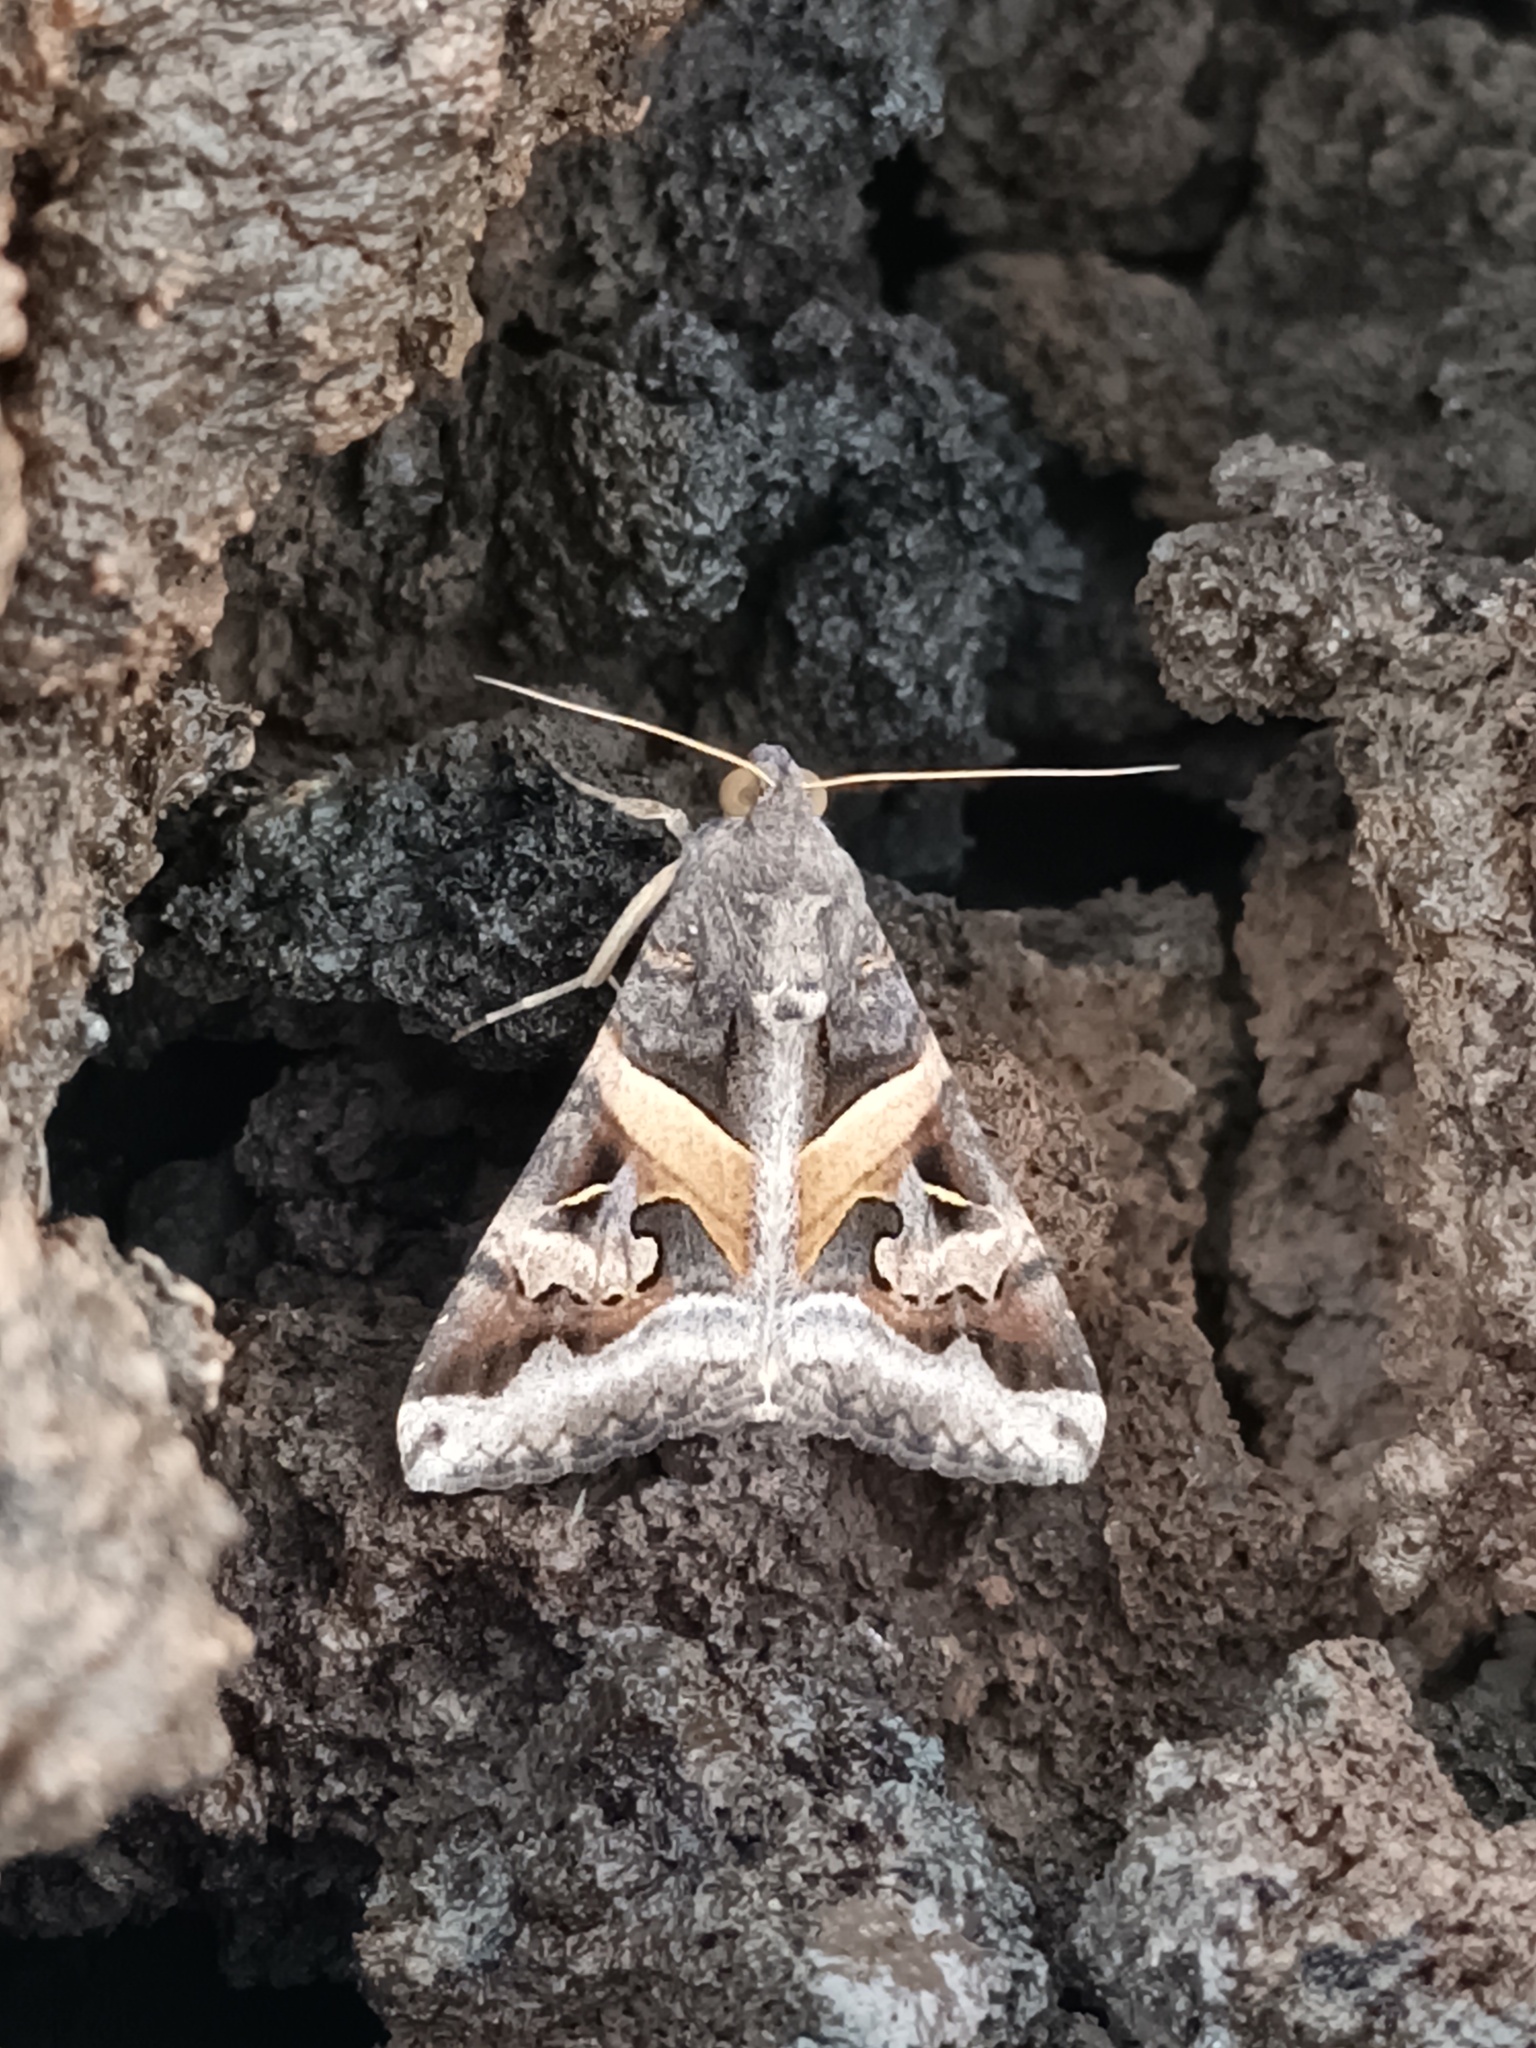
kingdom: Animalia
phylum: Arthropoda
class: Insecta
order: Lepidoptera
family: Erebidae
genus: Melipotis
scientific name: Melipotis indomita
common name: Moth
